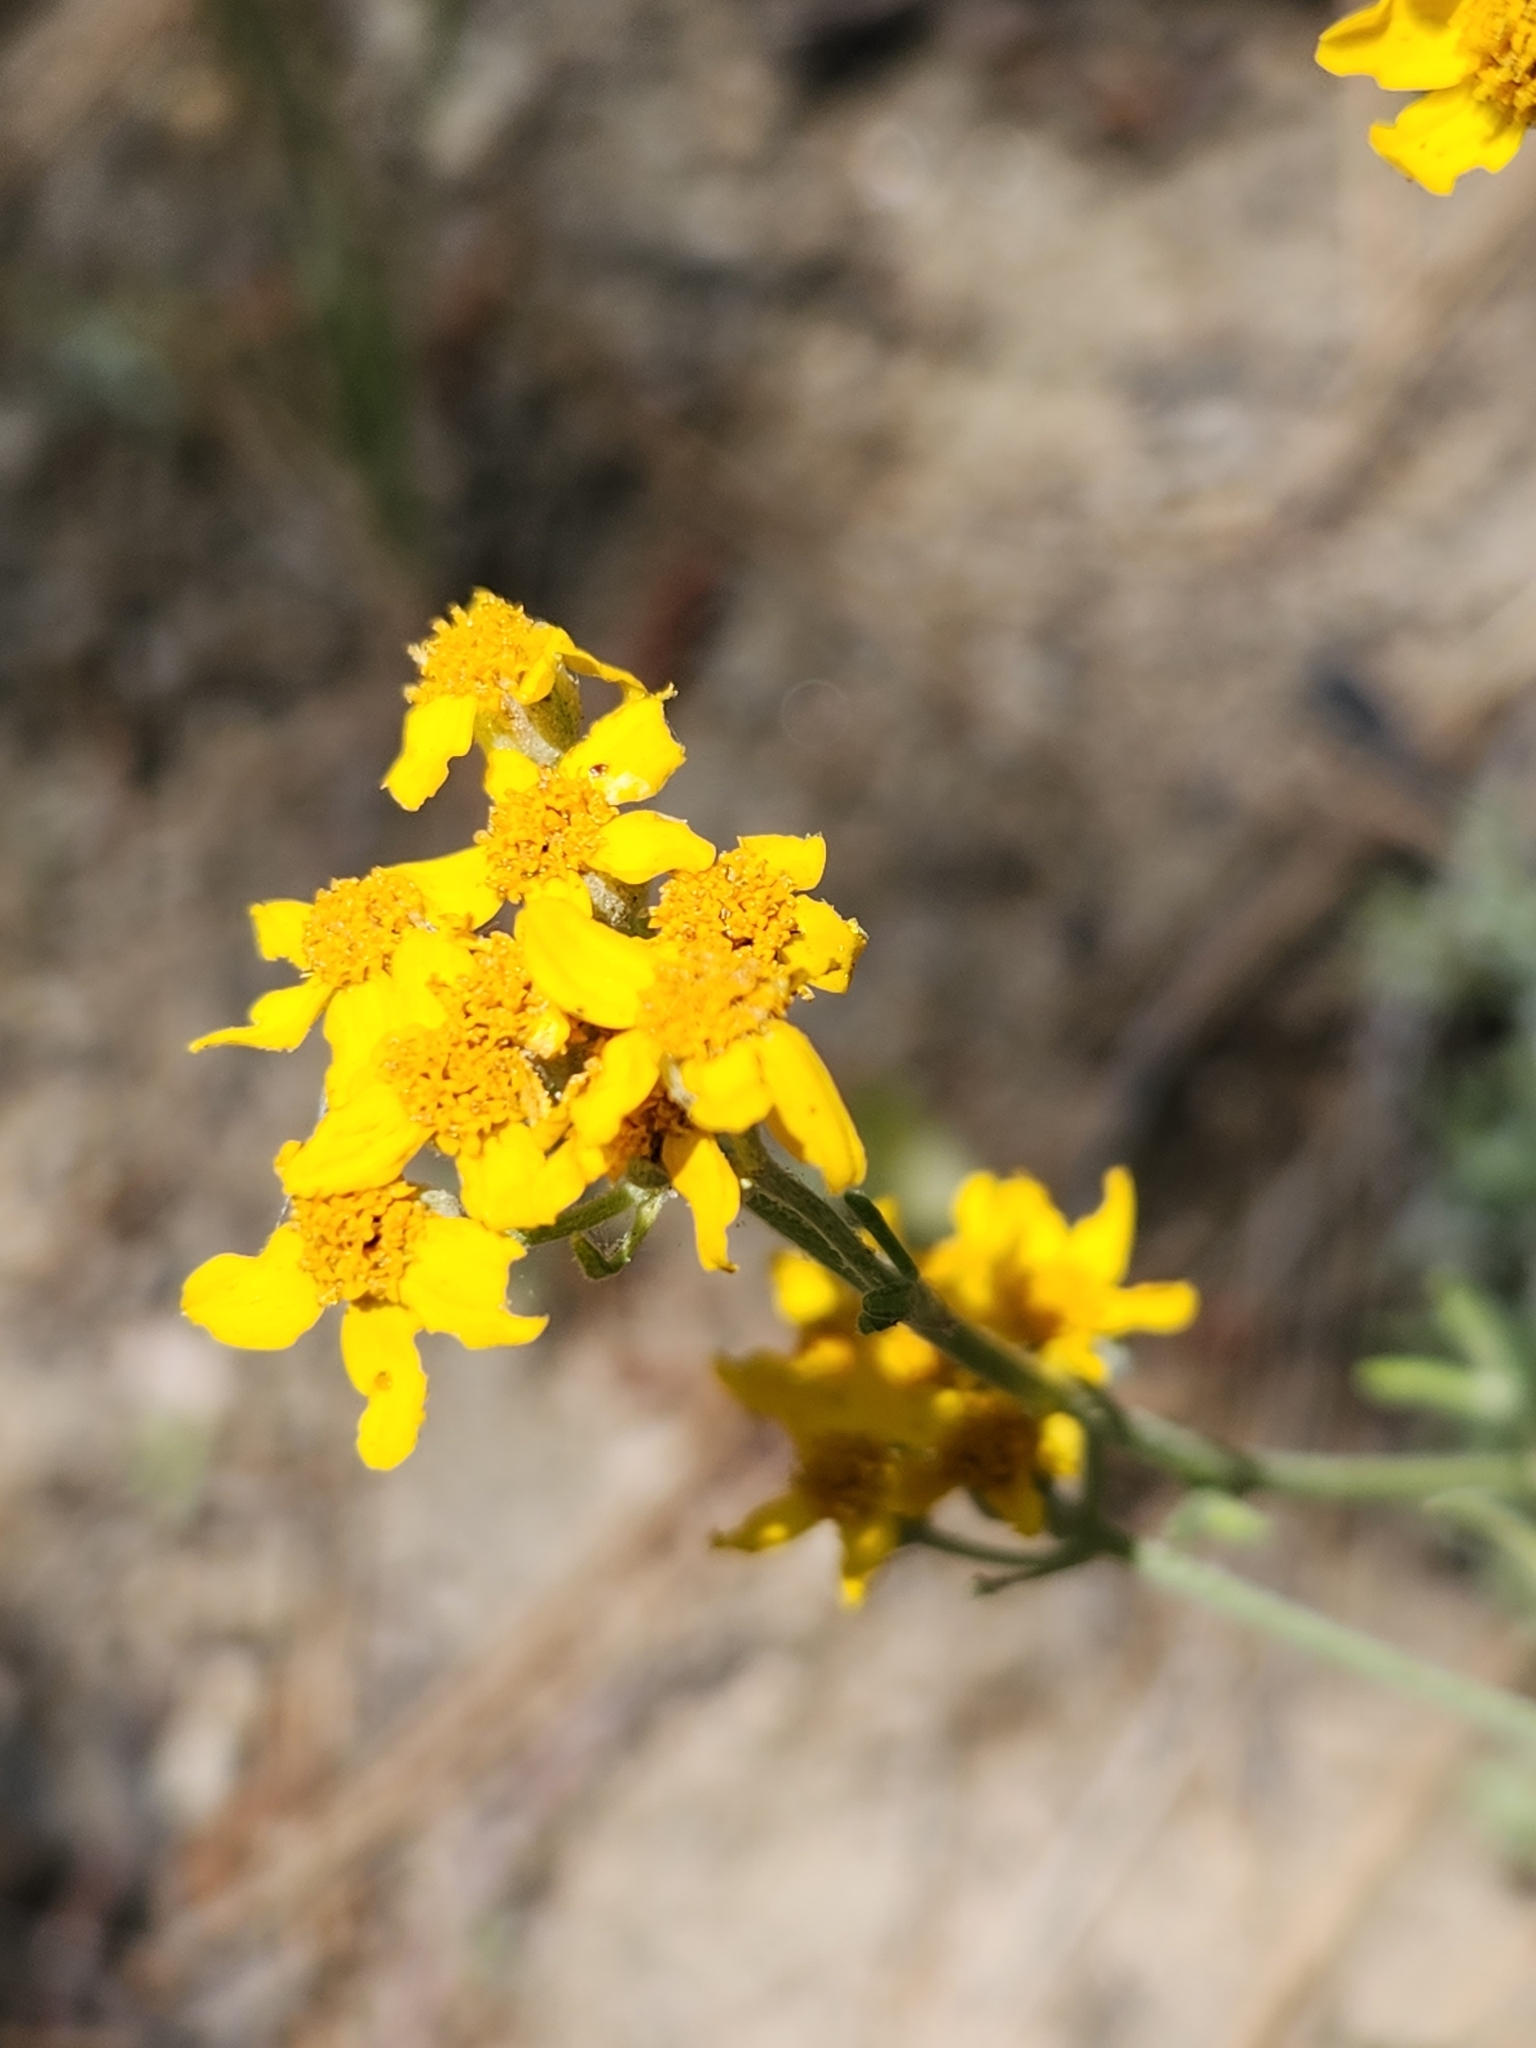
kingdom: Plantae
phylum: Tracheophyta
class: Magnoliopsida
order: Asterales
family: Asteraceae
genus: Eriophyllum
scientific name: Eriophyllum confertiflorum
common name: Golden-yarrow
